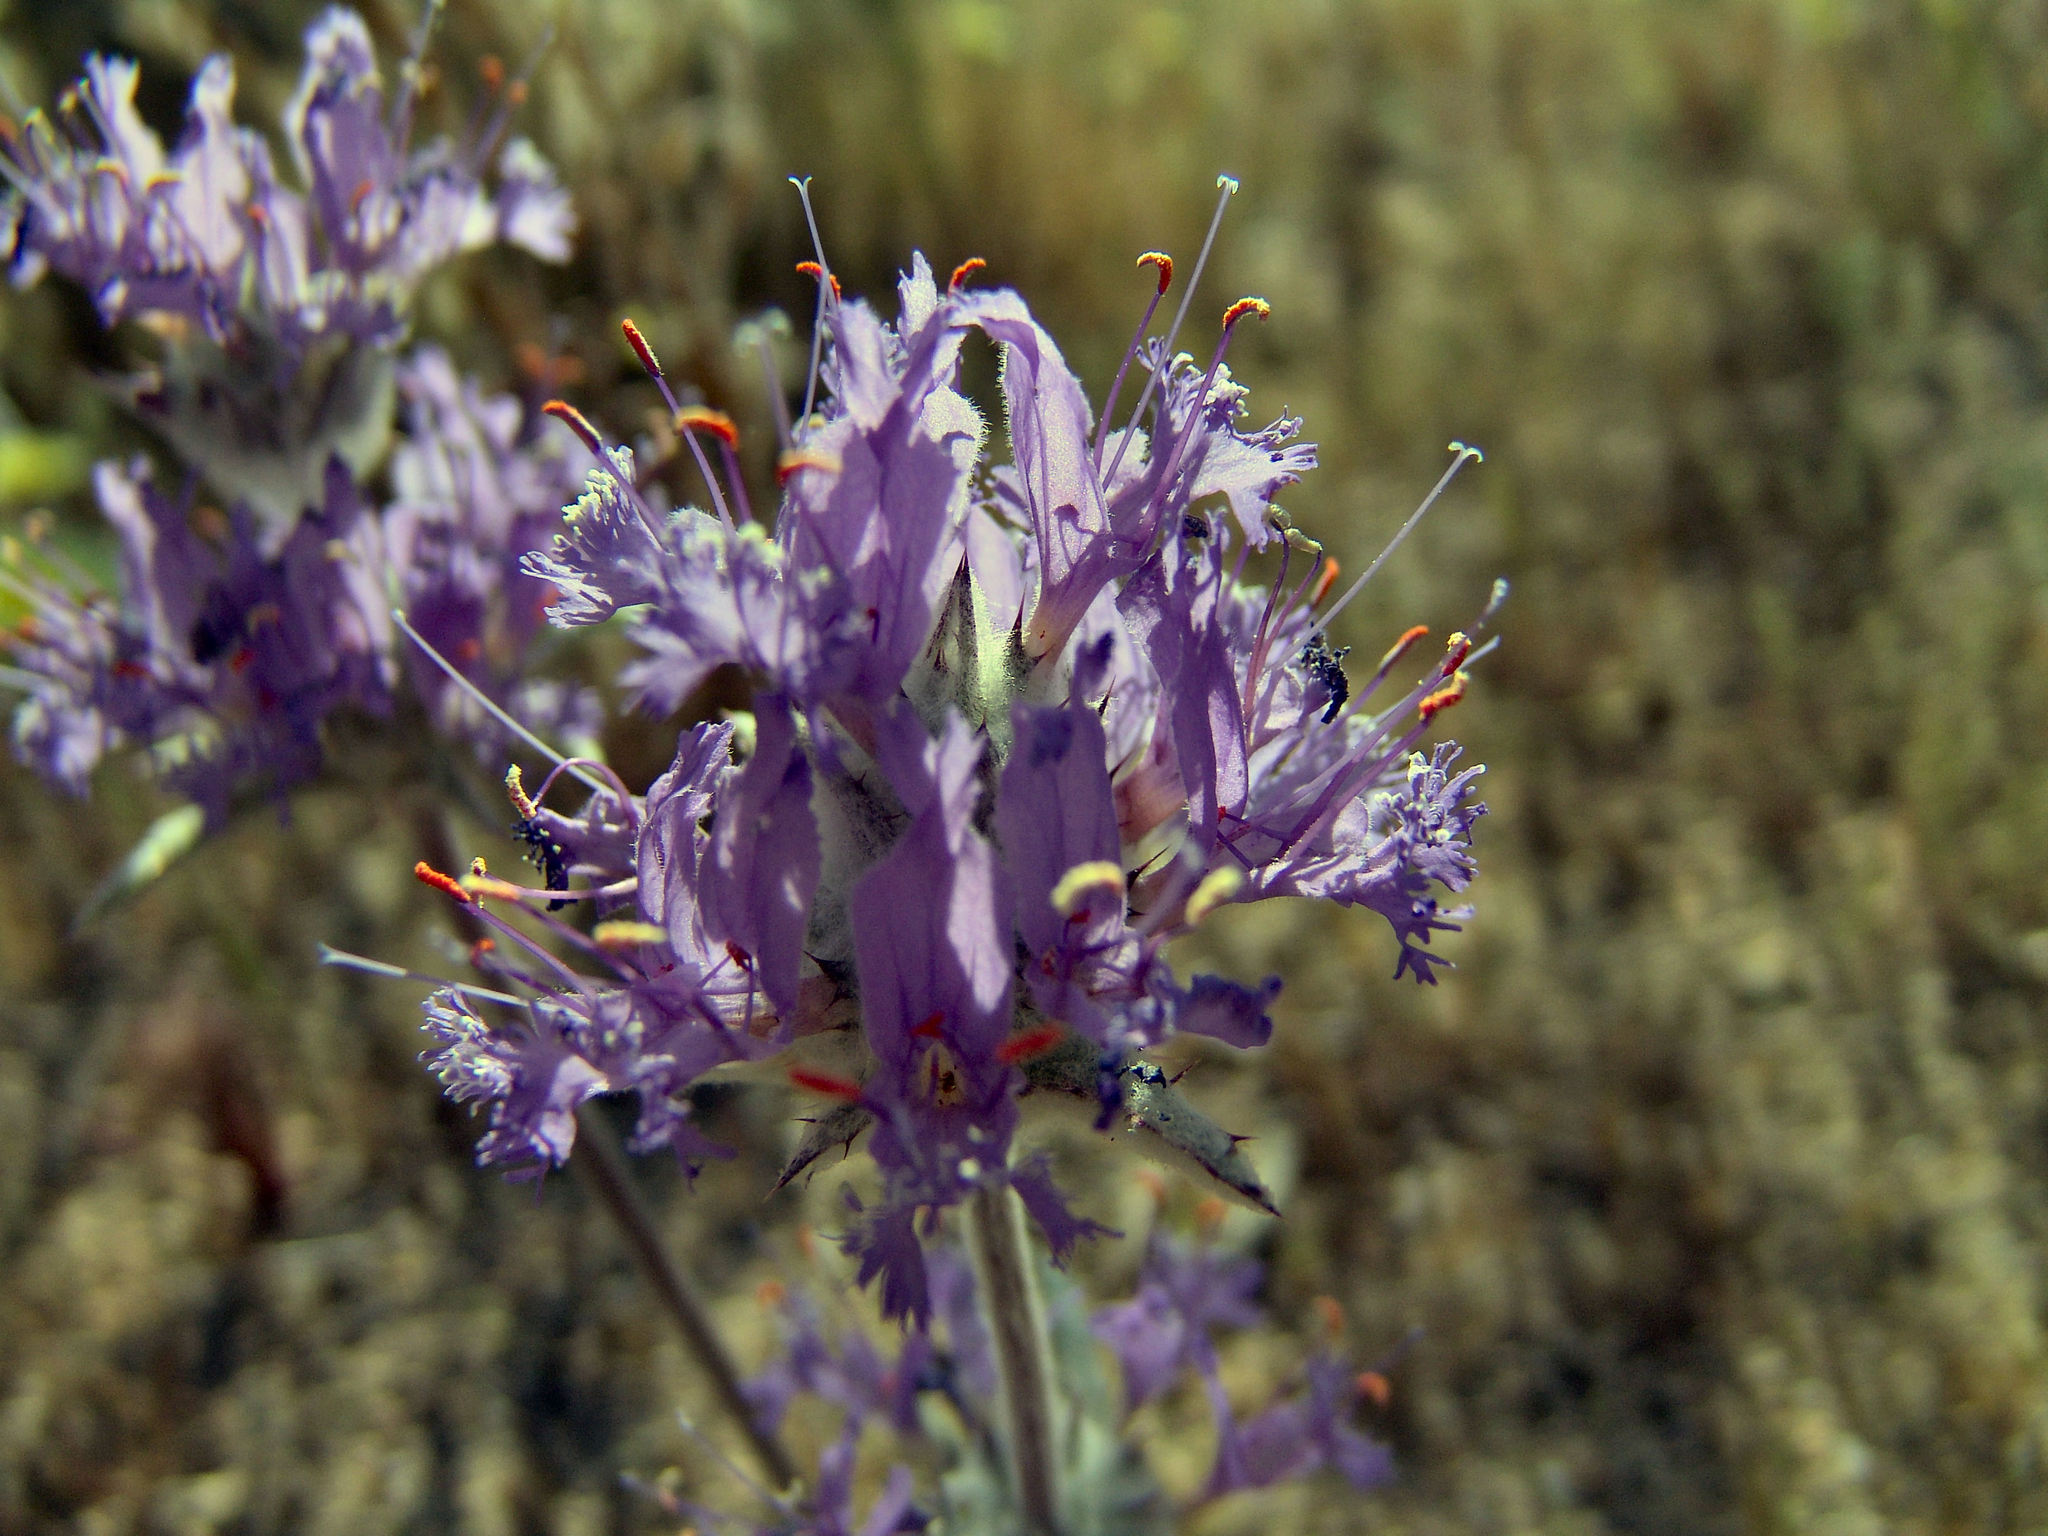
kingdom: Plantae
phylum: Tracheophyta
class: Magnoliopsida
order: Lamiales
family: Lamiaceae
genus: Salvia
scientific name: Salvia carduacea
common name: Thistle sage
